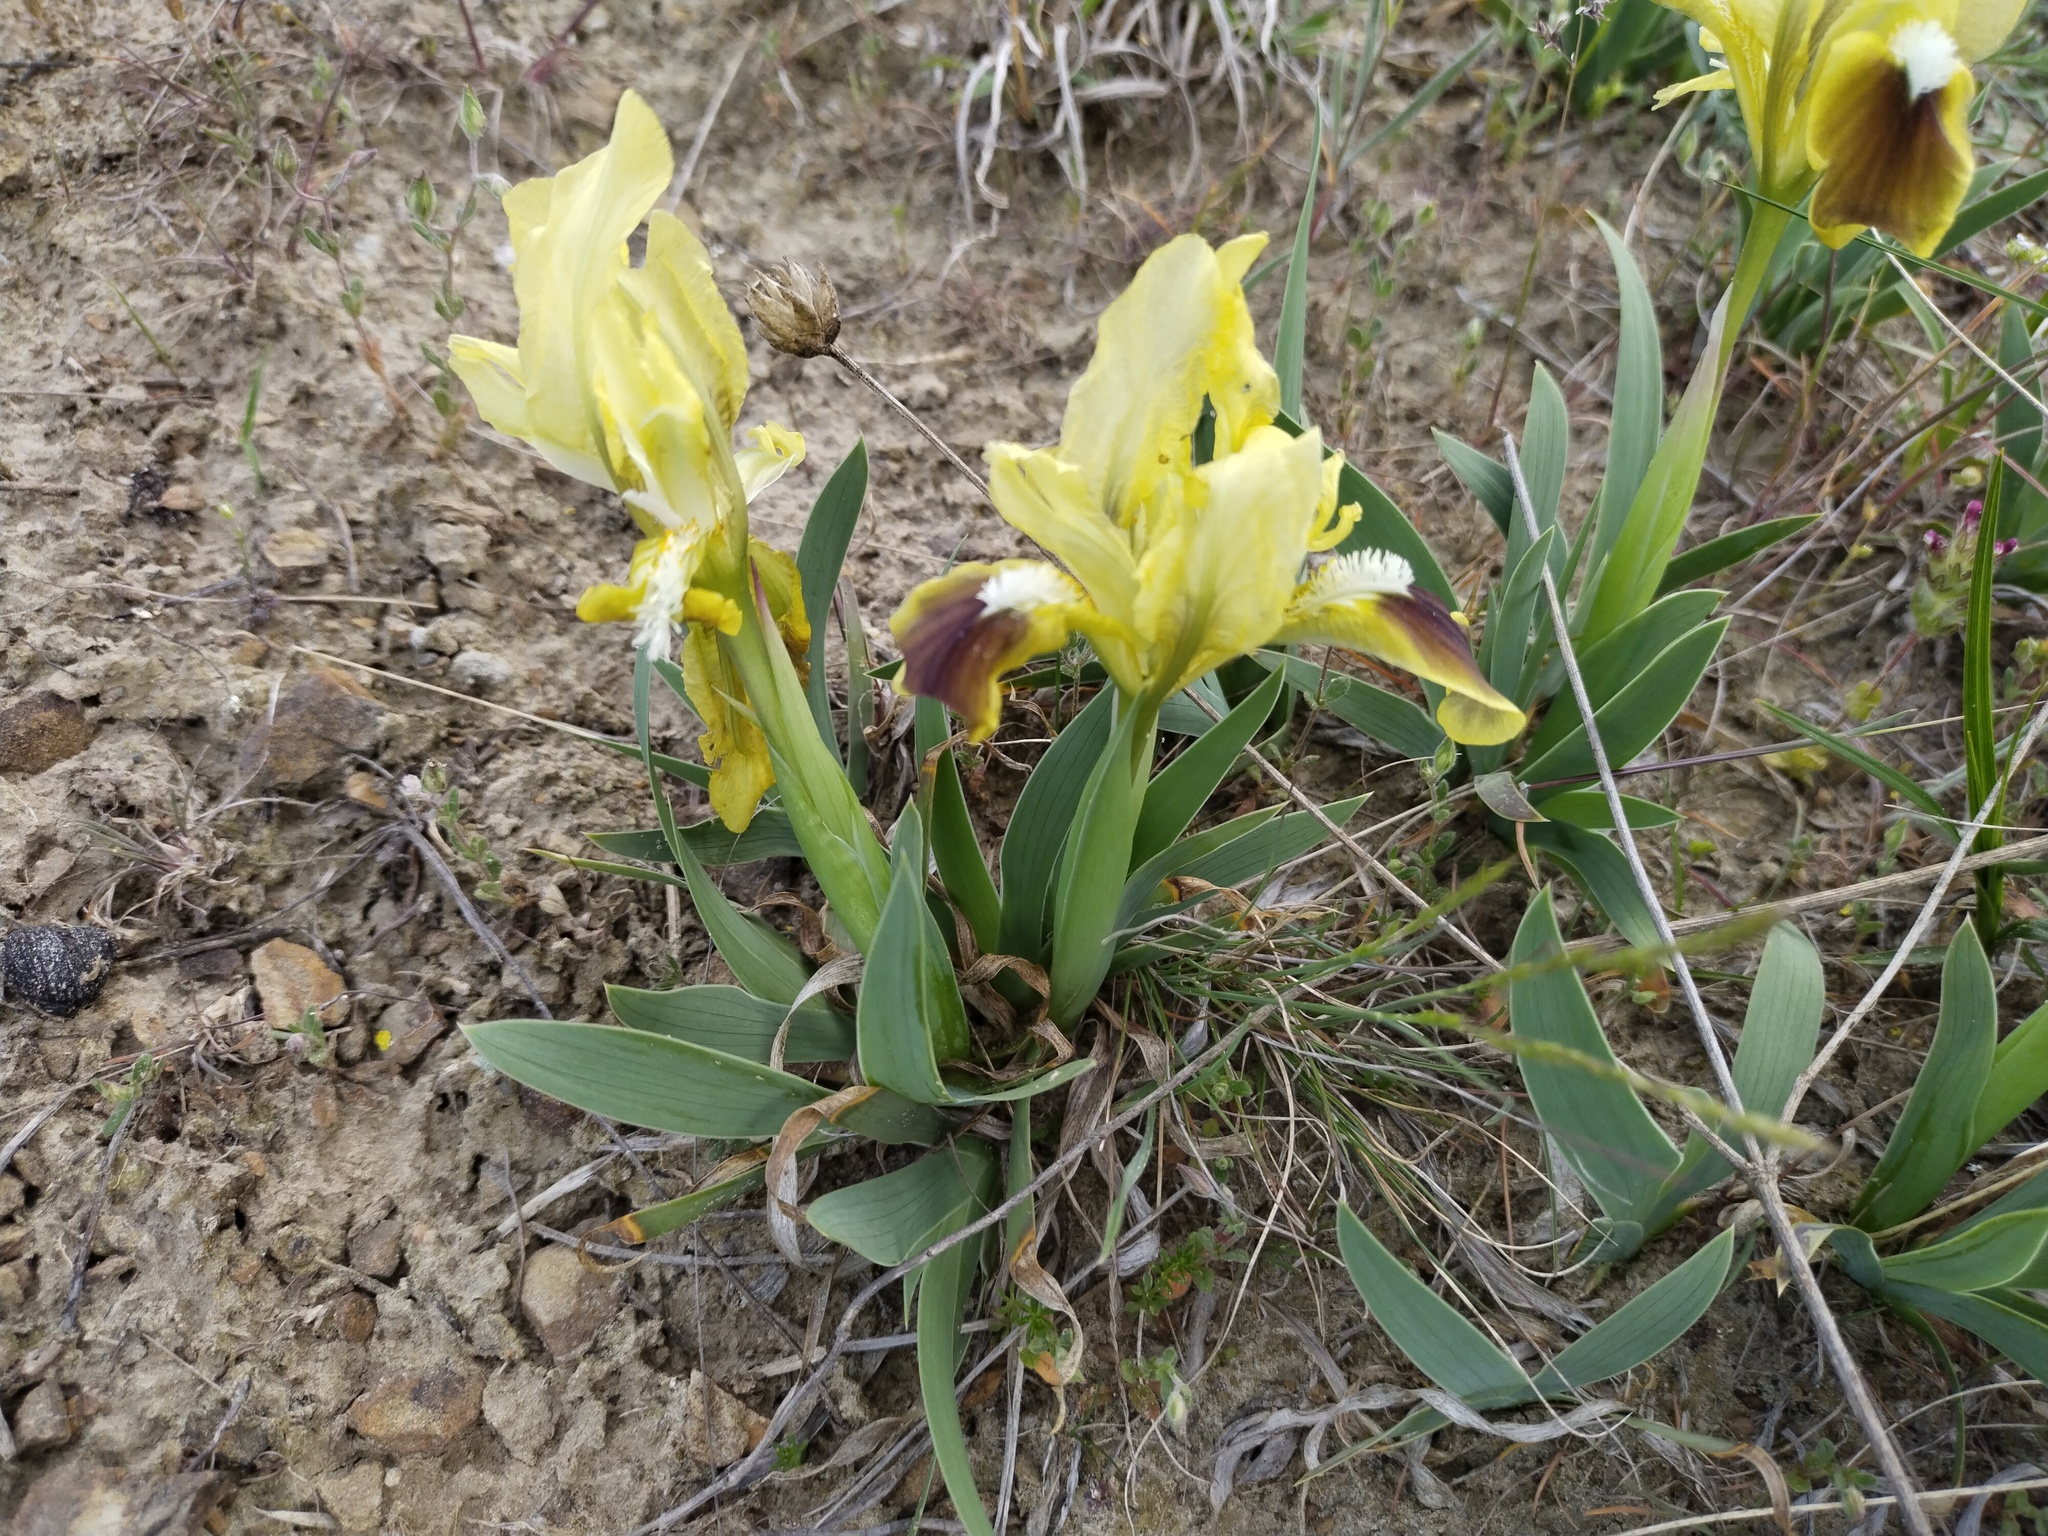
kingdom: Plantae
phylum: Tracheophyta
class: Liliopsida
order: Asparagales
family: Iridaceae
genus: Iris
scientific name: Iris pumila
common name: Dwarf iris
